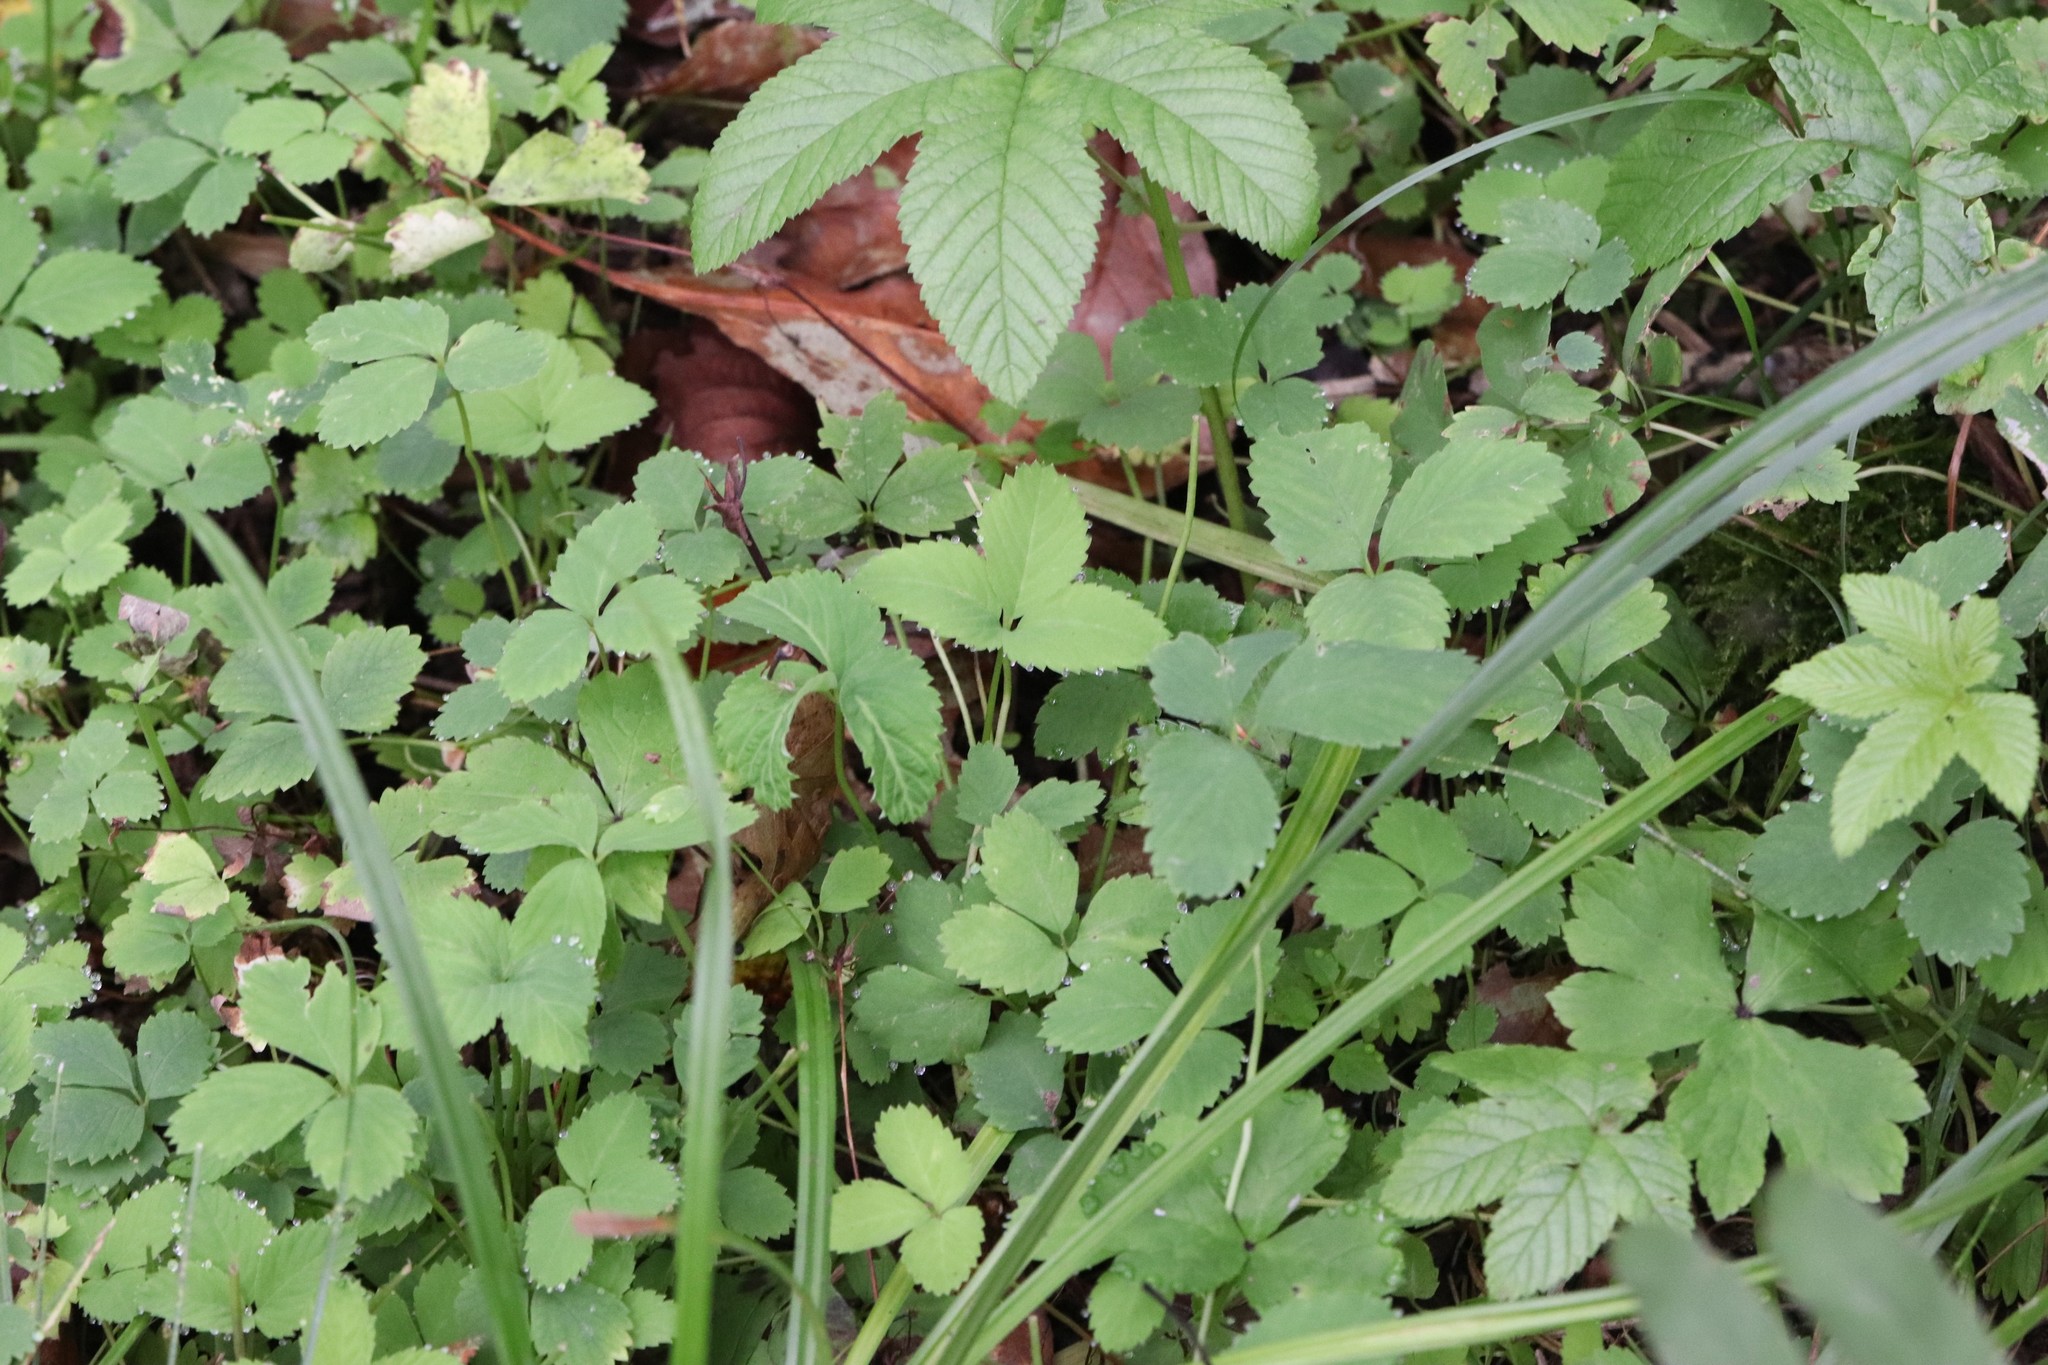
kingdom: Plantae
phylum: Tracheophyta
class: Magnoliopsida
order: Rosales
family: Rosaceae
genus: Potentilla
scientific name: Potentilla centigrana
